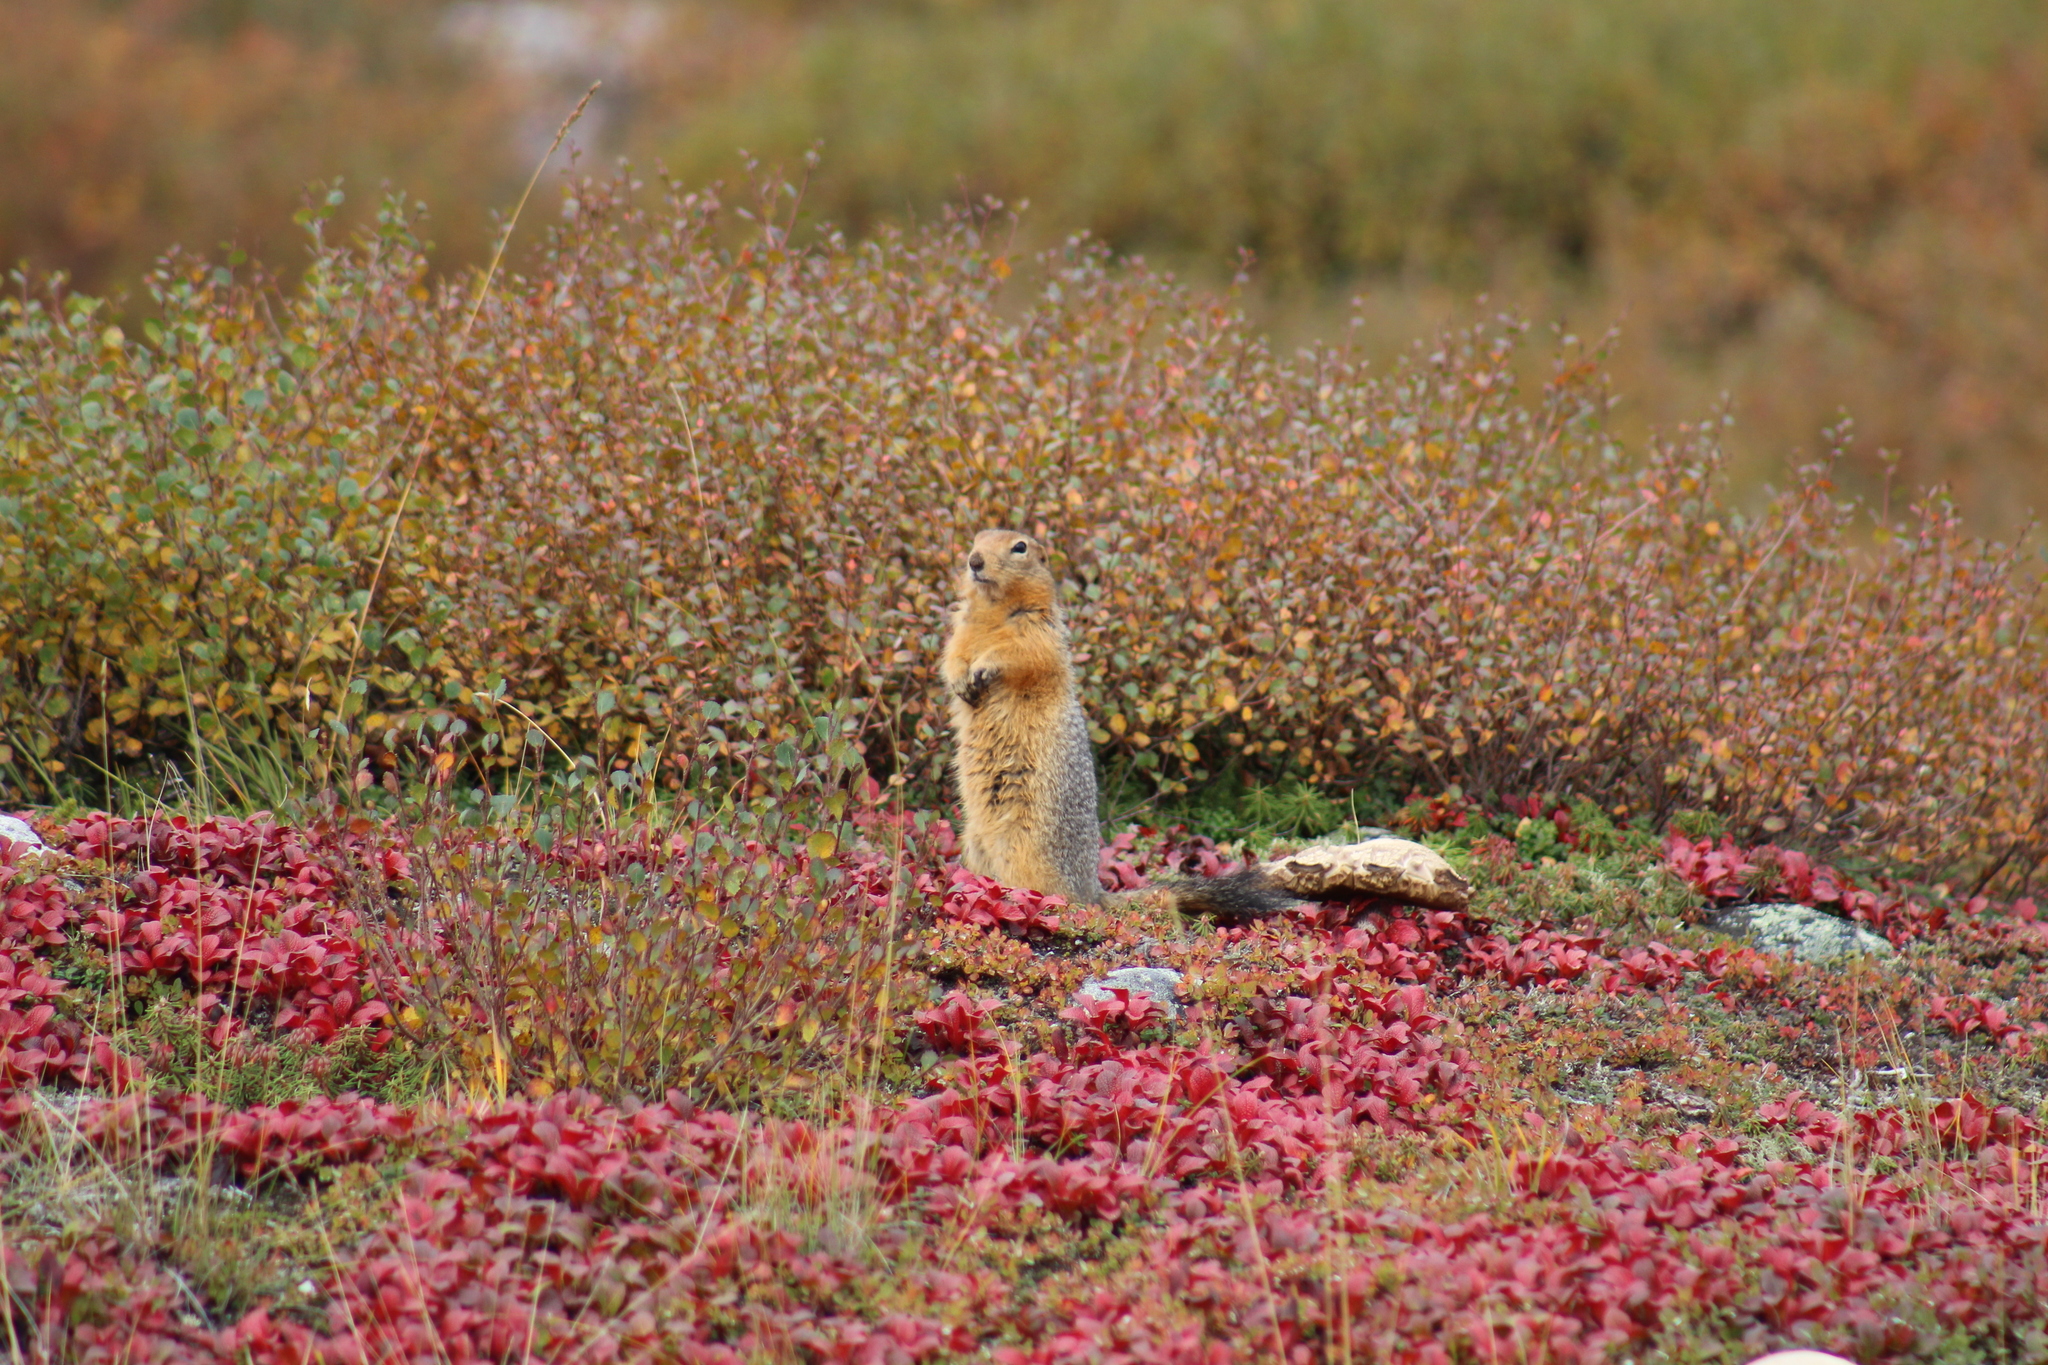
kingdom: Animalia
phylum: Chordata
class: Mammalia
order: Rodentia
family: Sciuridae
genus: Urocitellus
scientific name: Urocitellus parryii
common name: Arctic ground squirrel
